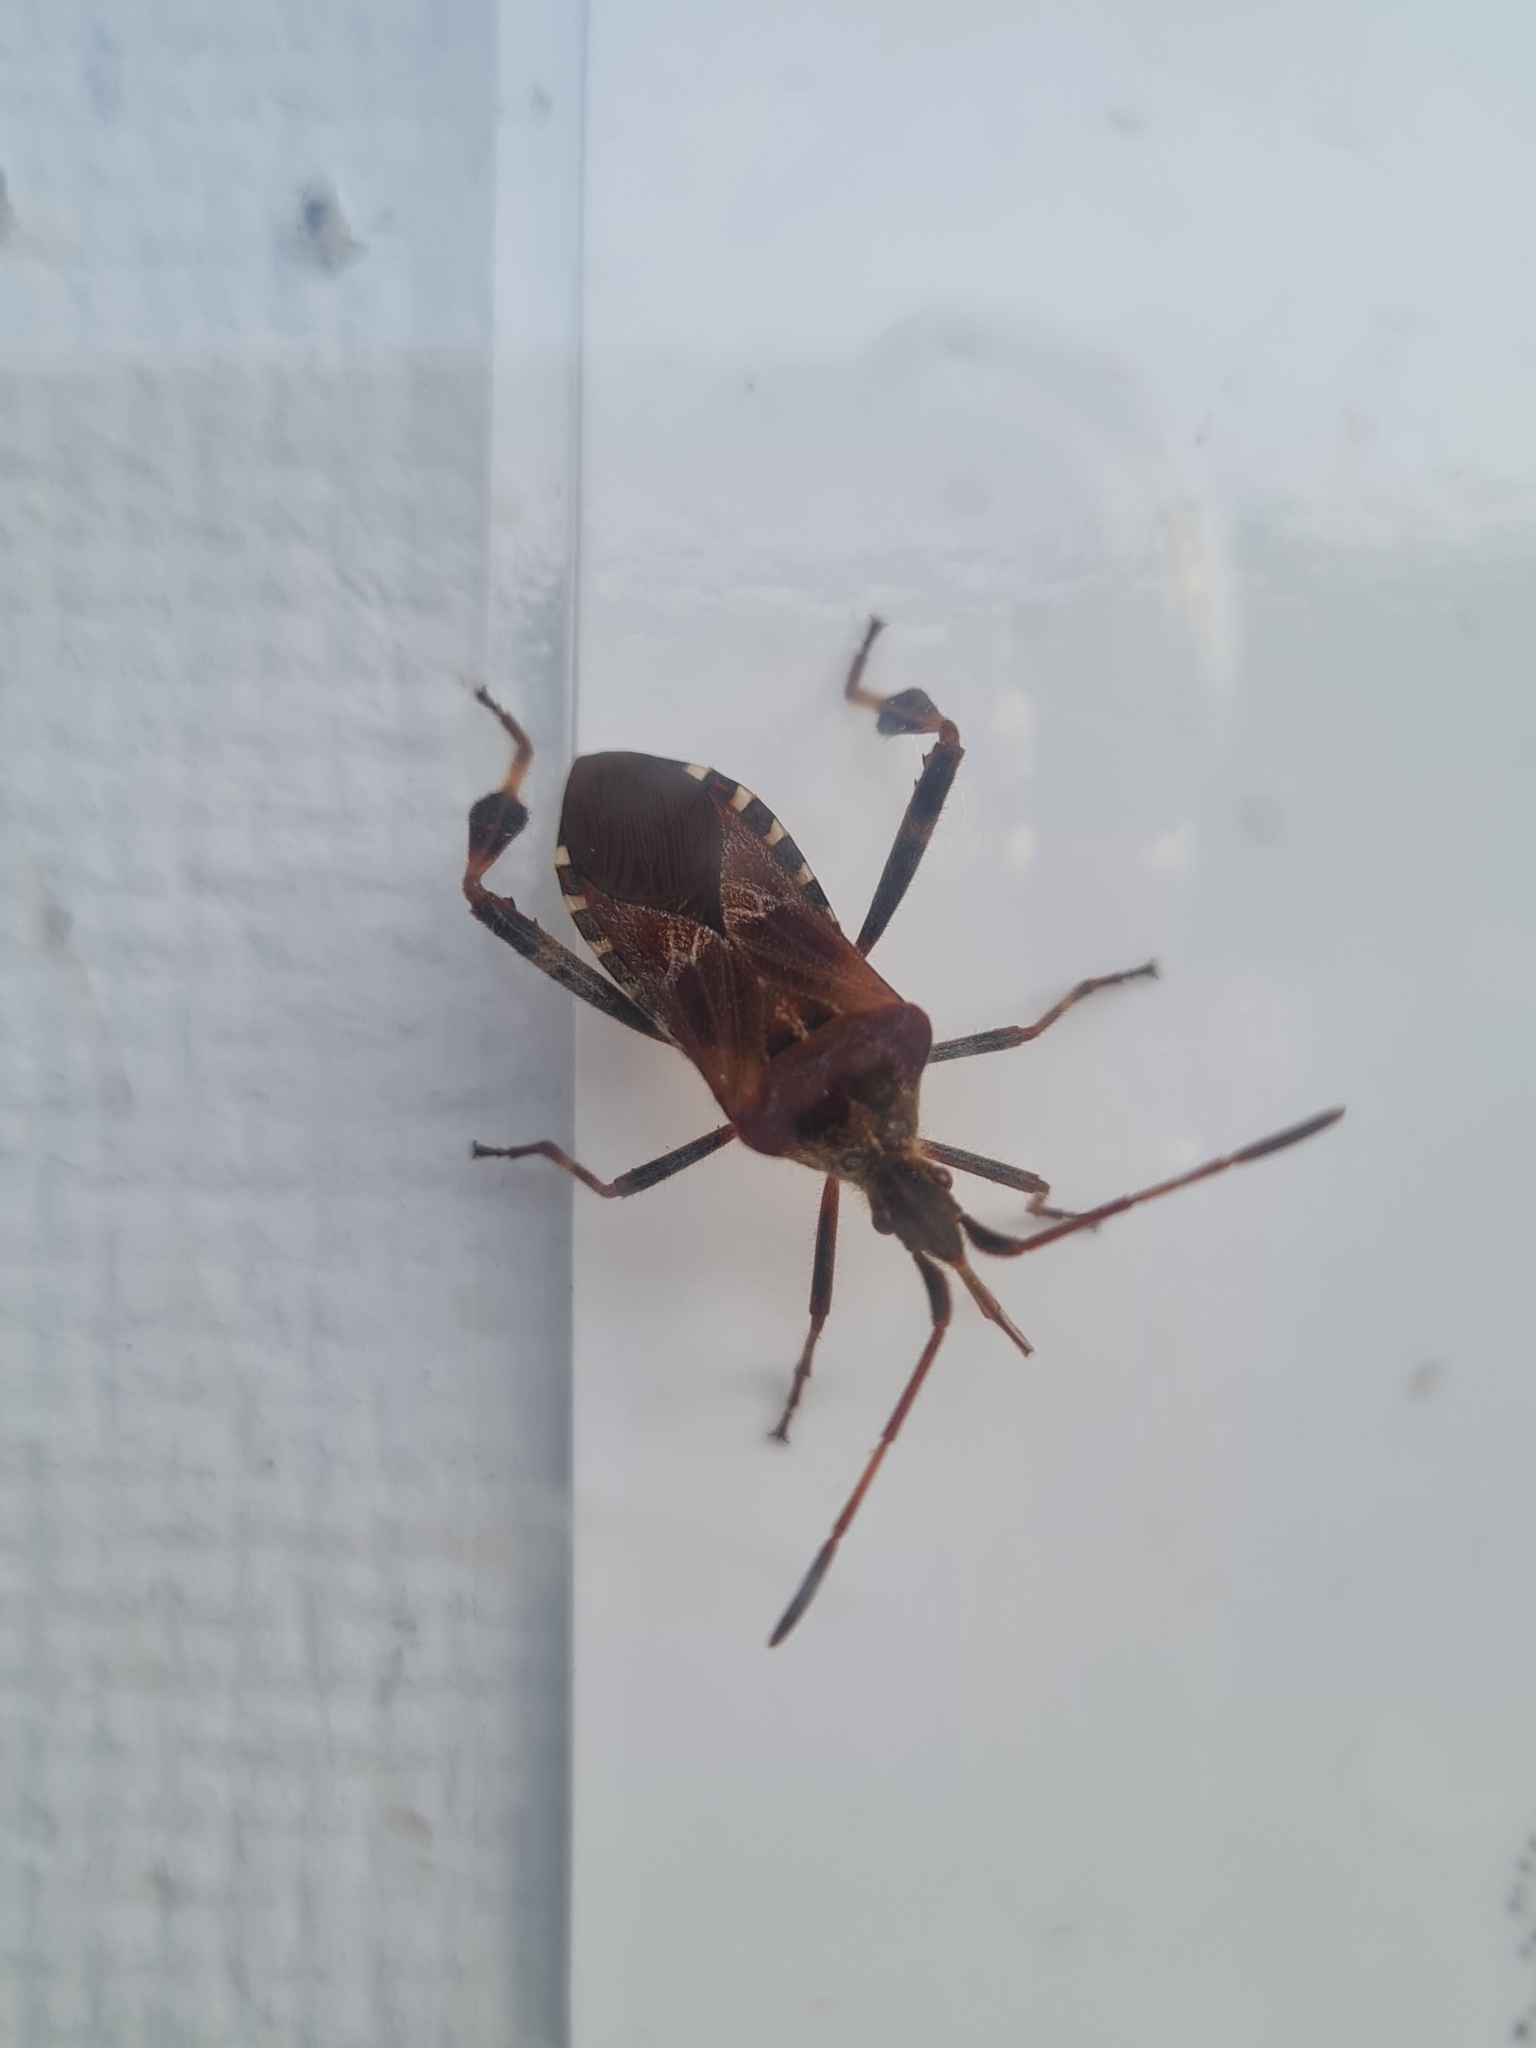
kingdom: Animalia
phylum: Arthropoda
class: Insecta
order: Hemiptera
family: Coreidae
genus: Leptoglossus
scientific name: Leptoglossus occidentalis
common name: Western conifer-seed bug
